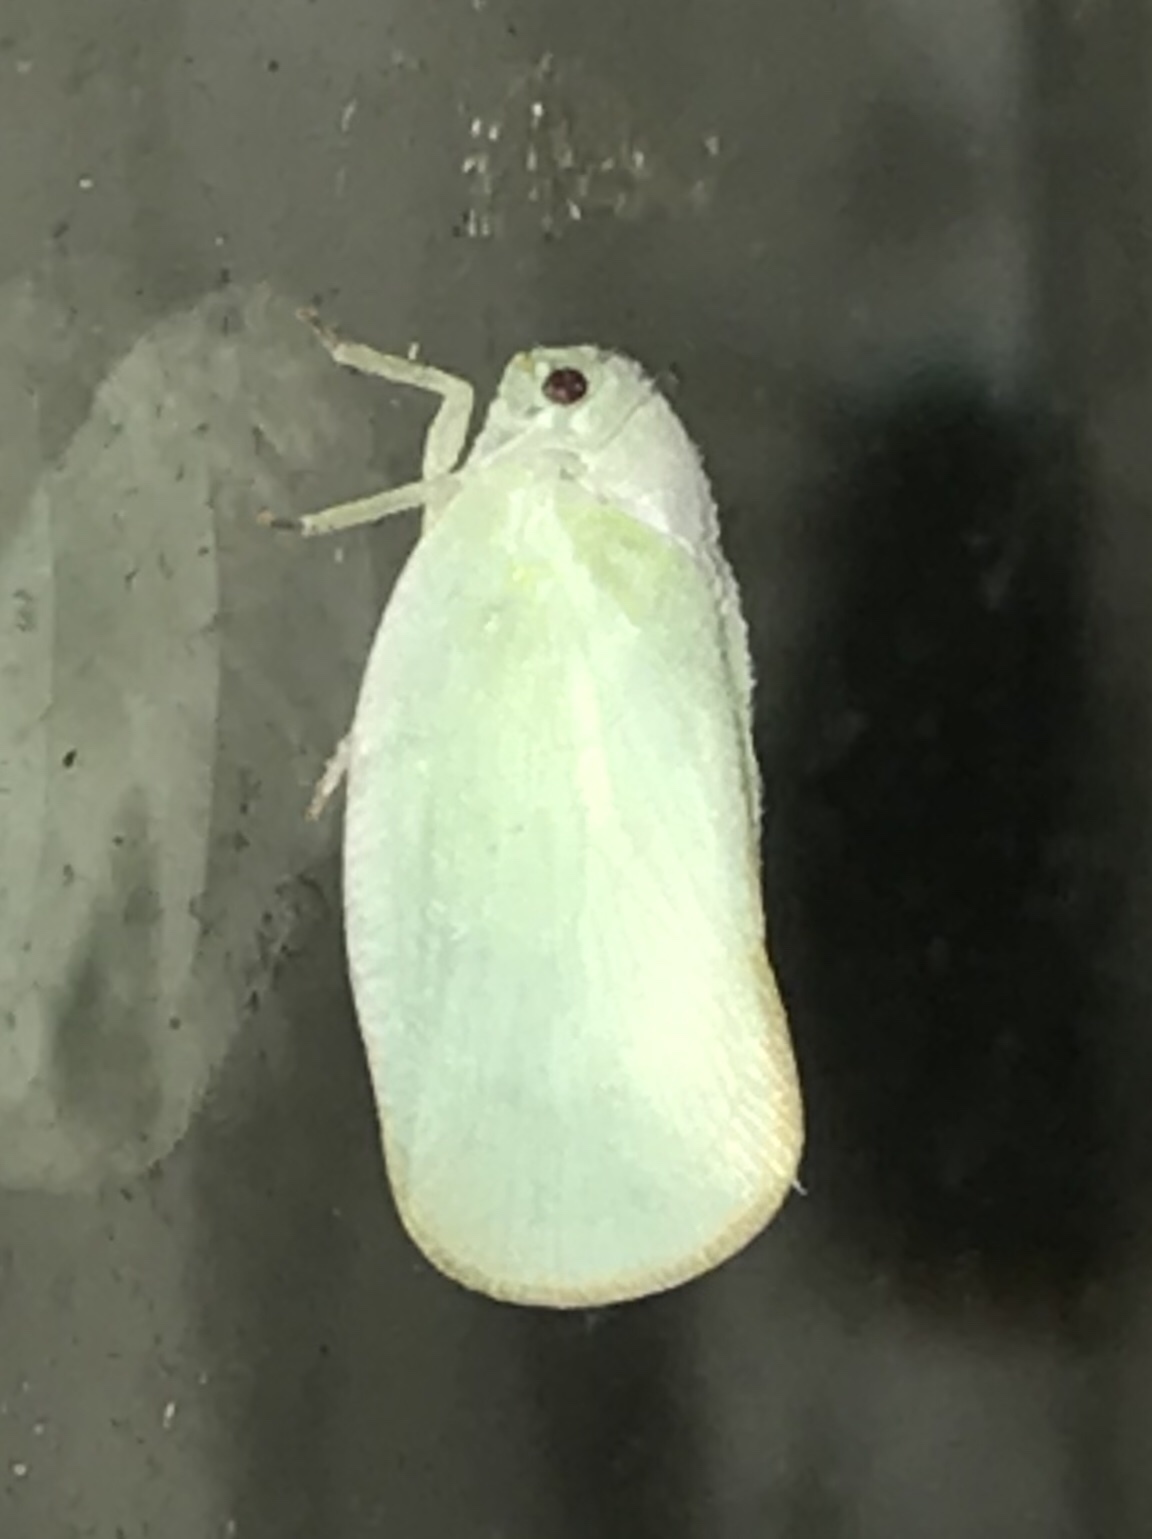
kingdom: Animalia
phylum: Arthropoda
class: Insecta
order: Hemiptera
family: Flatidae
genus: Ormenoides
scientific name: Ormenoides venusta
